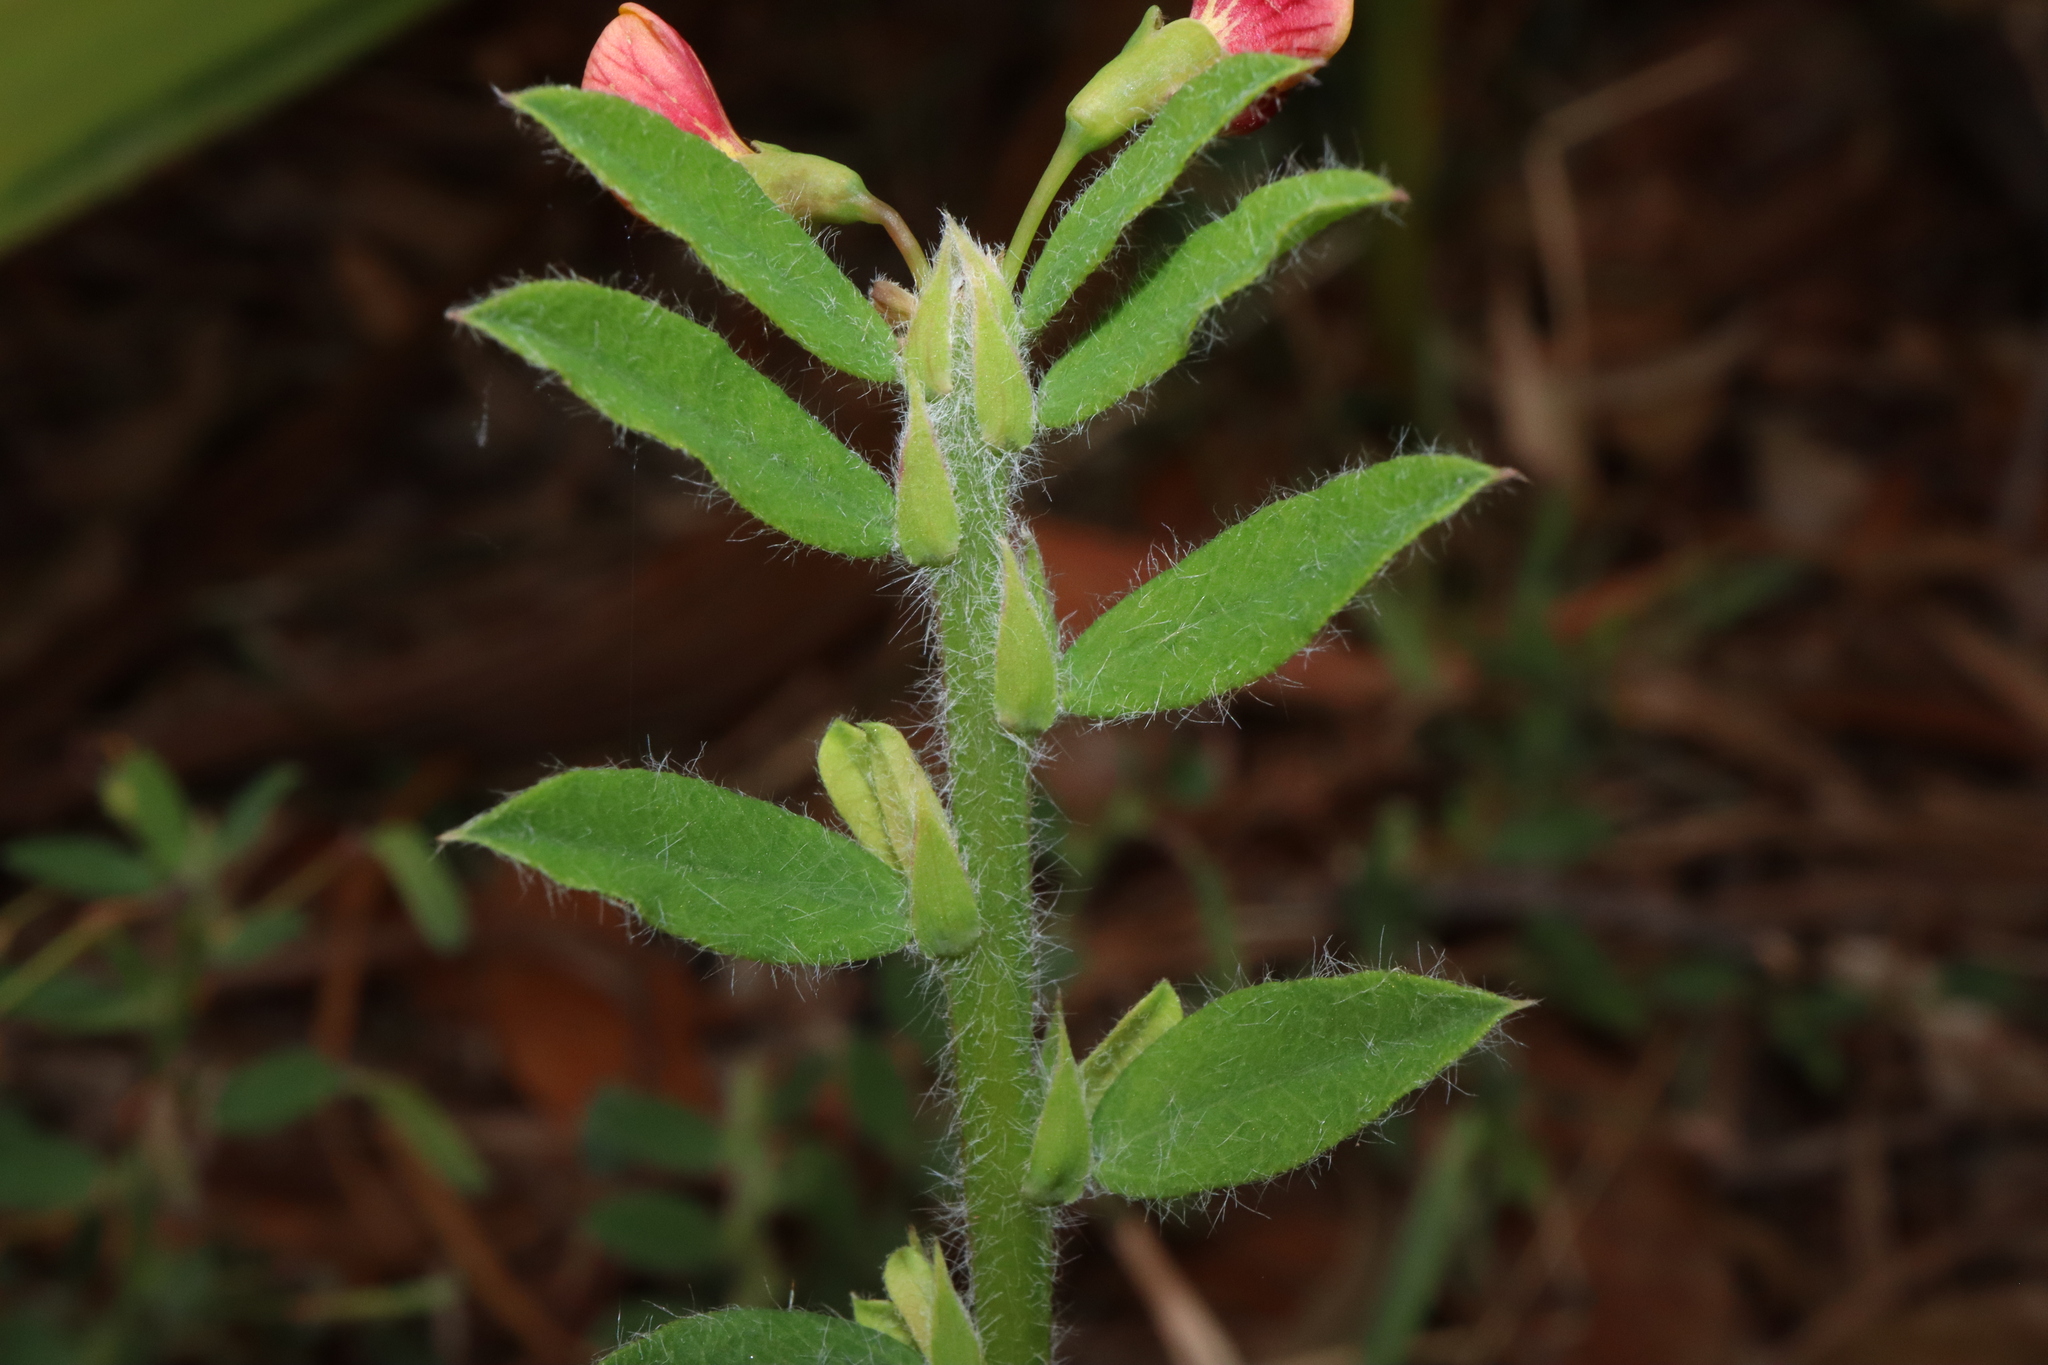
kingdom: Plantae
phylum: Tracheophyta
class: Magnoliopsida
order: Fabales
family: Fabaceae
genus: Bossiaea
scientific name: Bossiaea stephensonii
